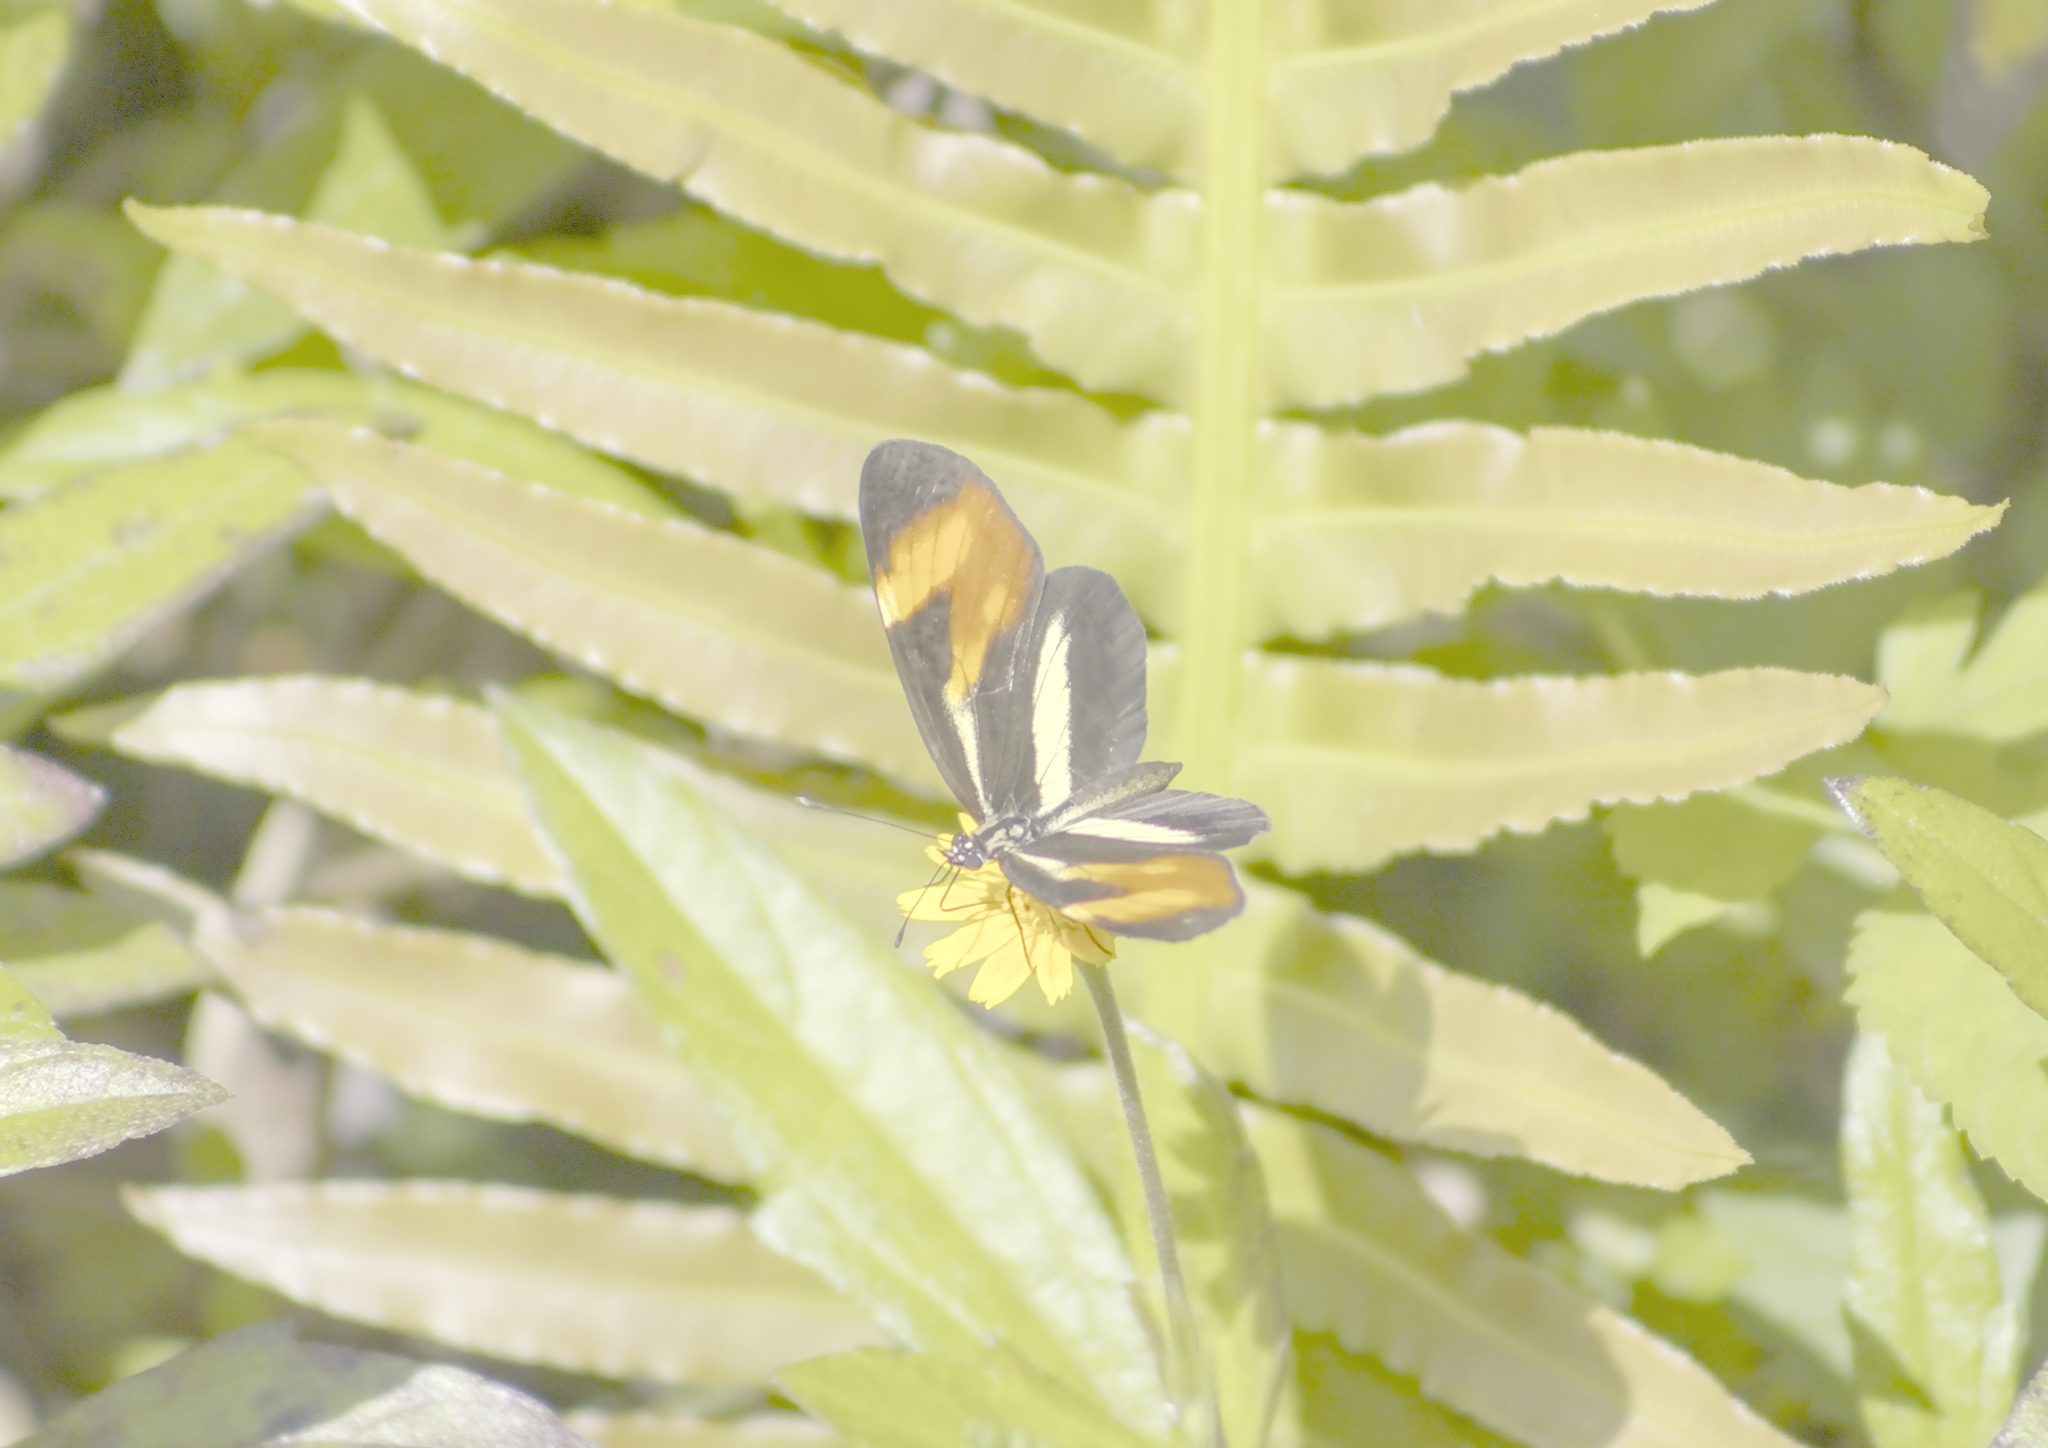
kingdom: Animalia
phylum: Arthropoda
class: Insecta
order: Lepidoptera
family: Nymphalidae
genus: Eresia
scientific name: Eresia lansdorfi
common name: Lansdorf's crescent
